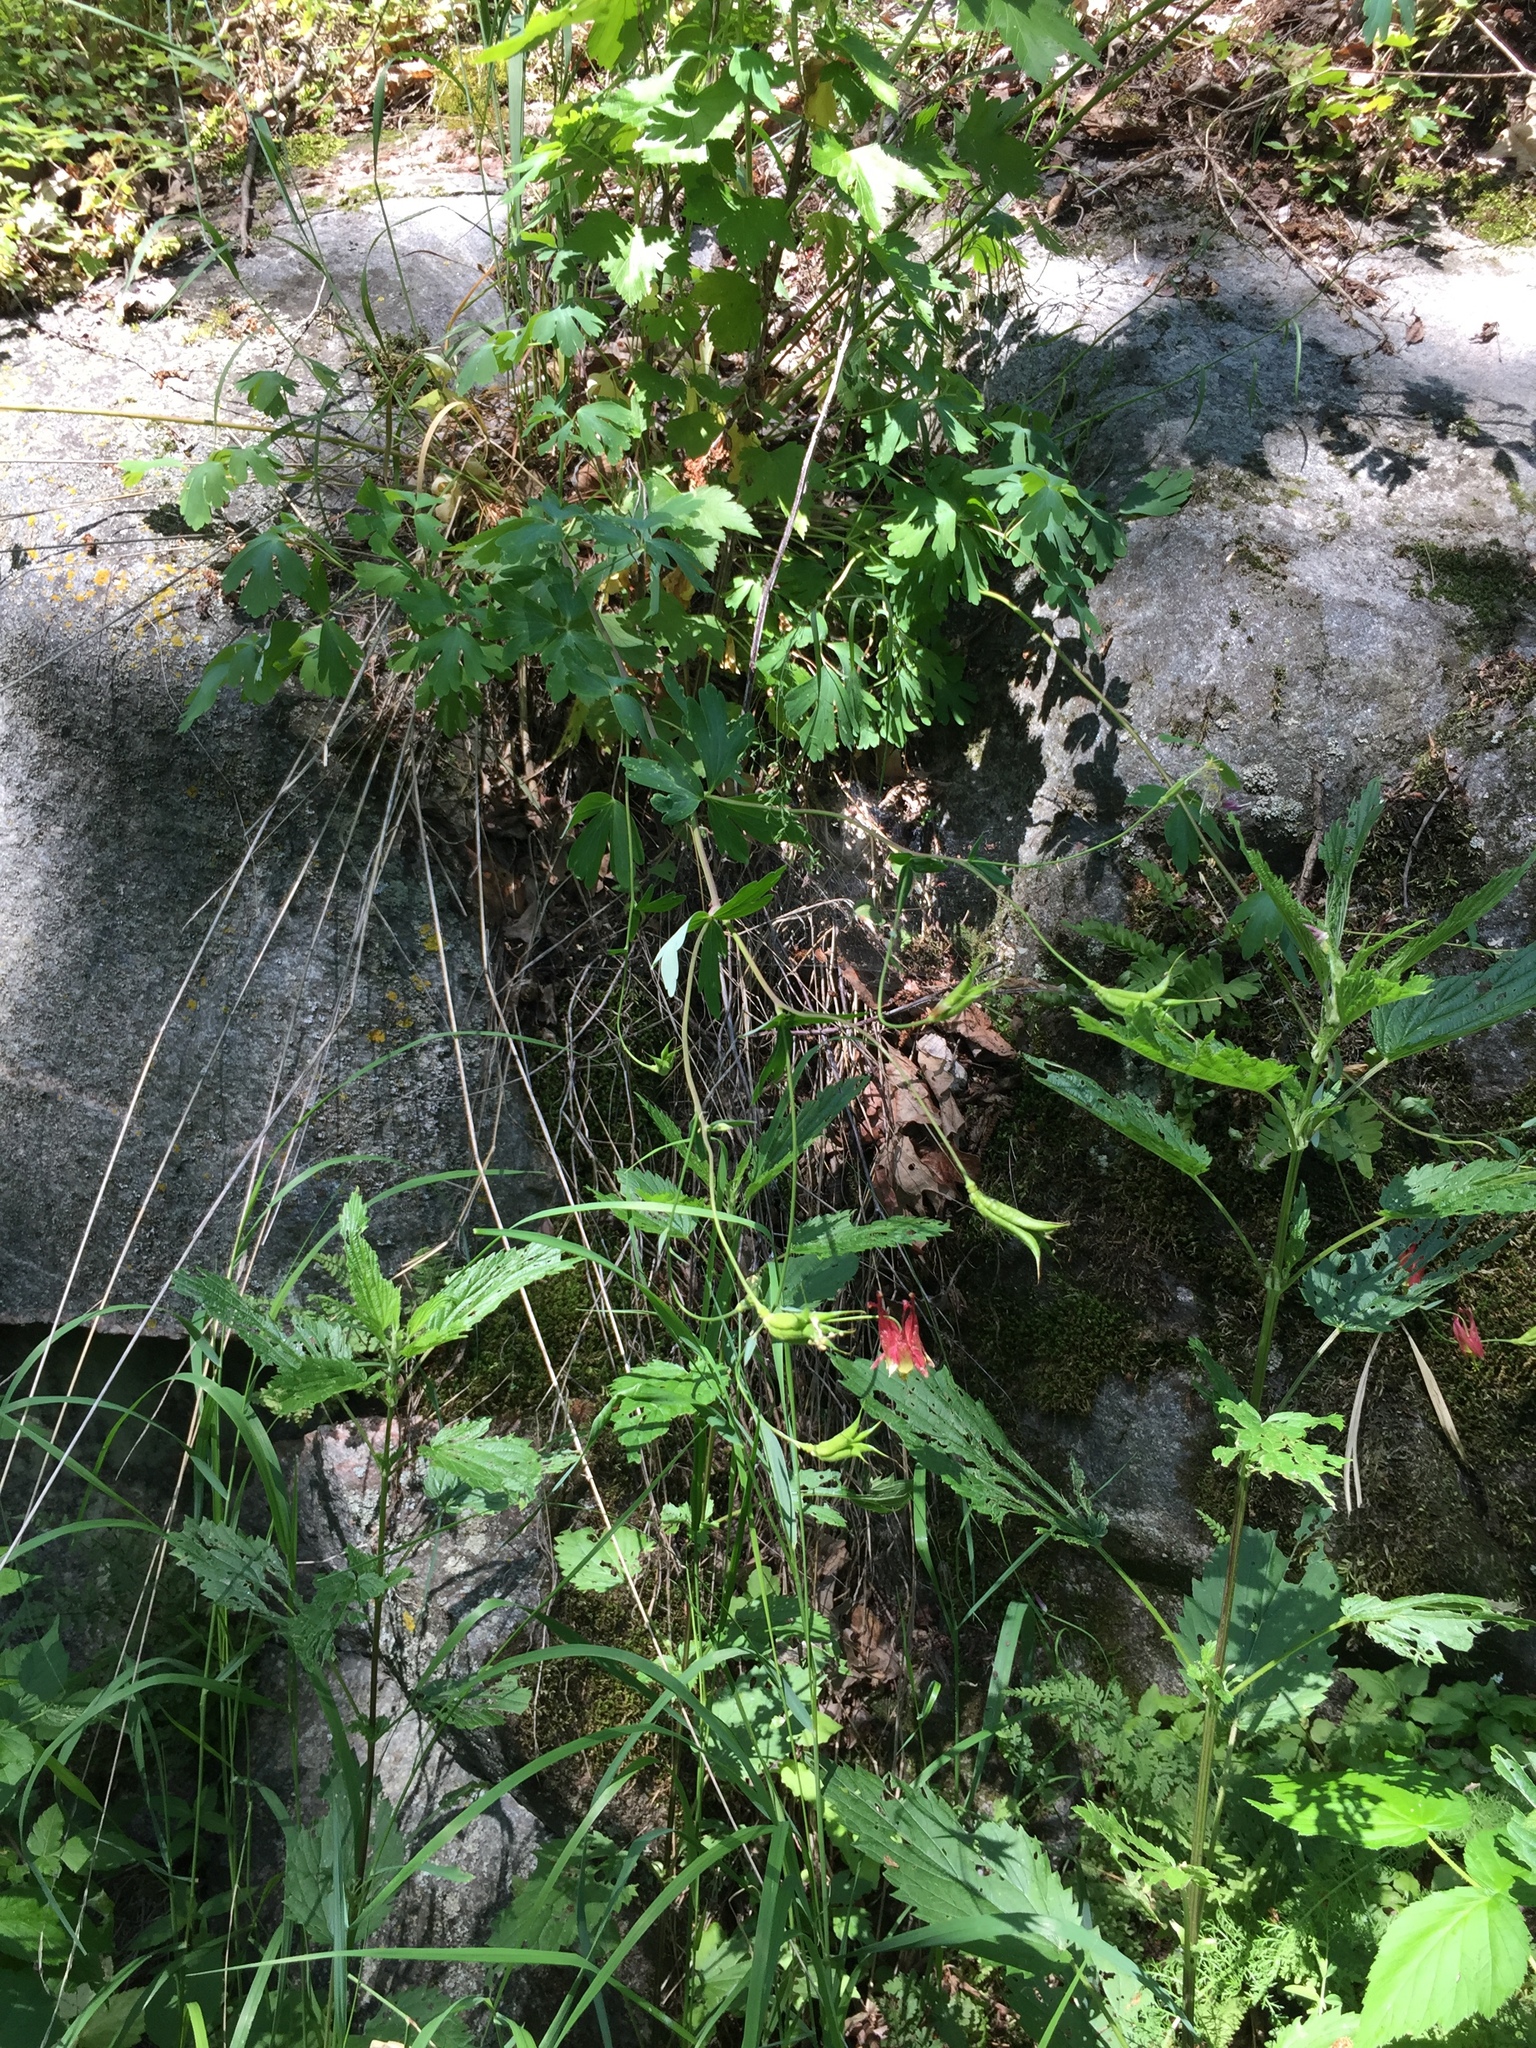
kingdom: Plantae
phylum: Tracheophyta
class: Magnoliopsida
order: Ranunculales
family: Ranunculaceae
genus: Aquilegia
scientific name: Aquilegia canadensis
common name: American columbine
